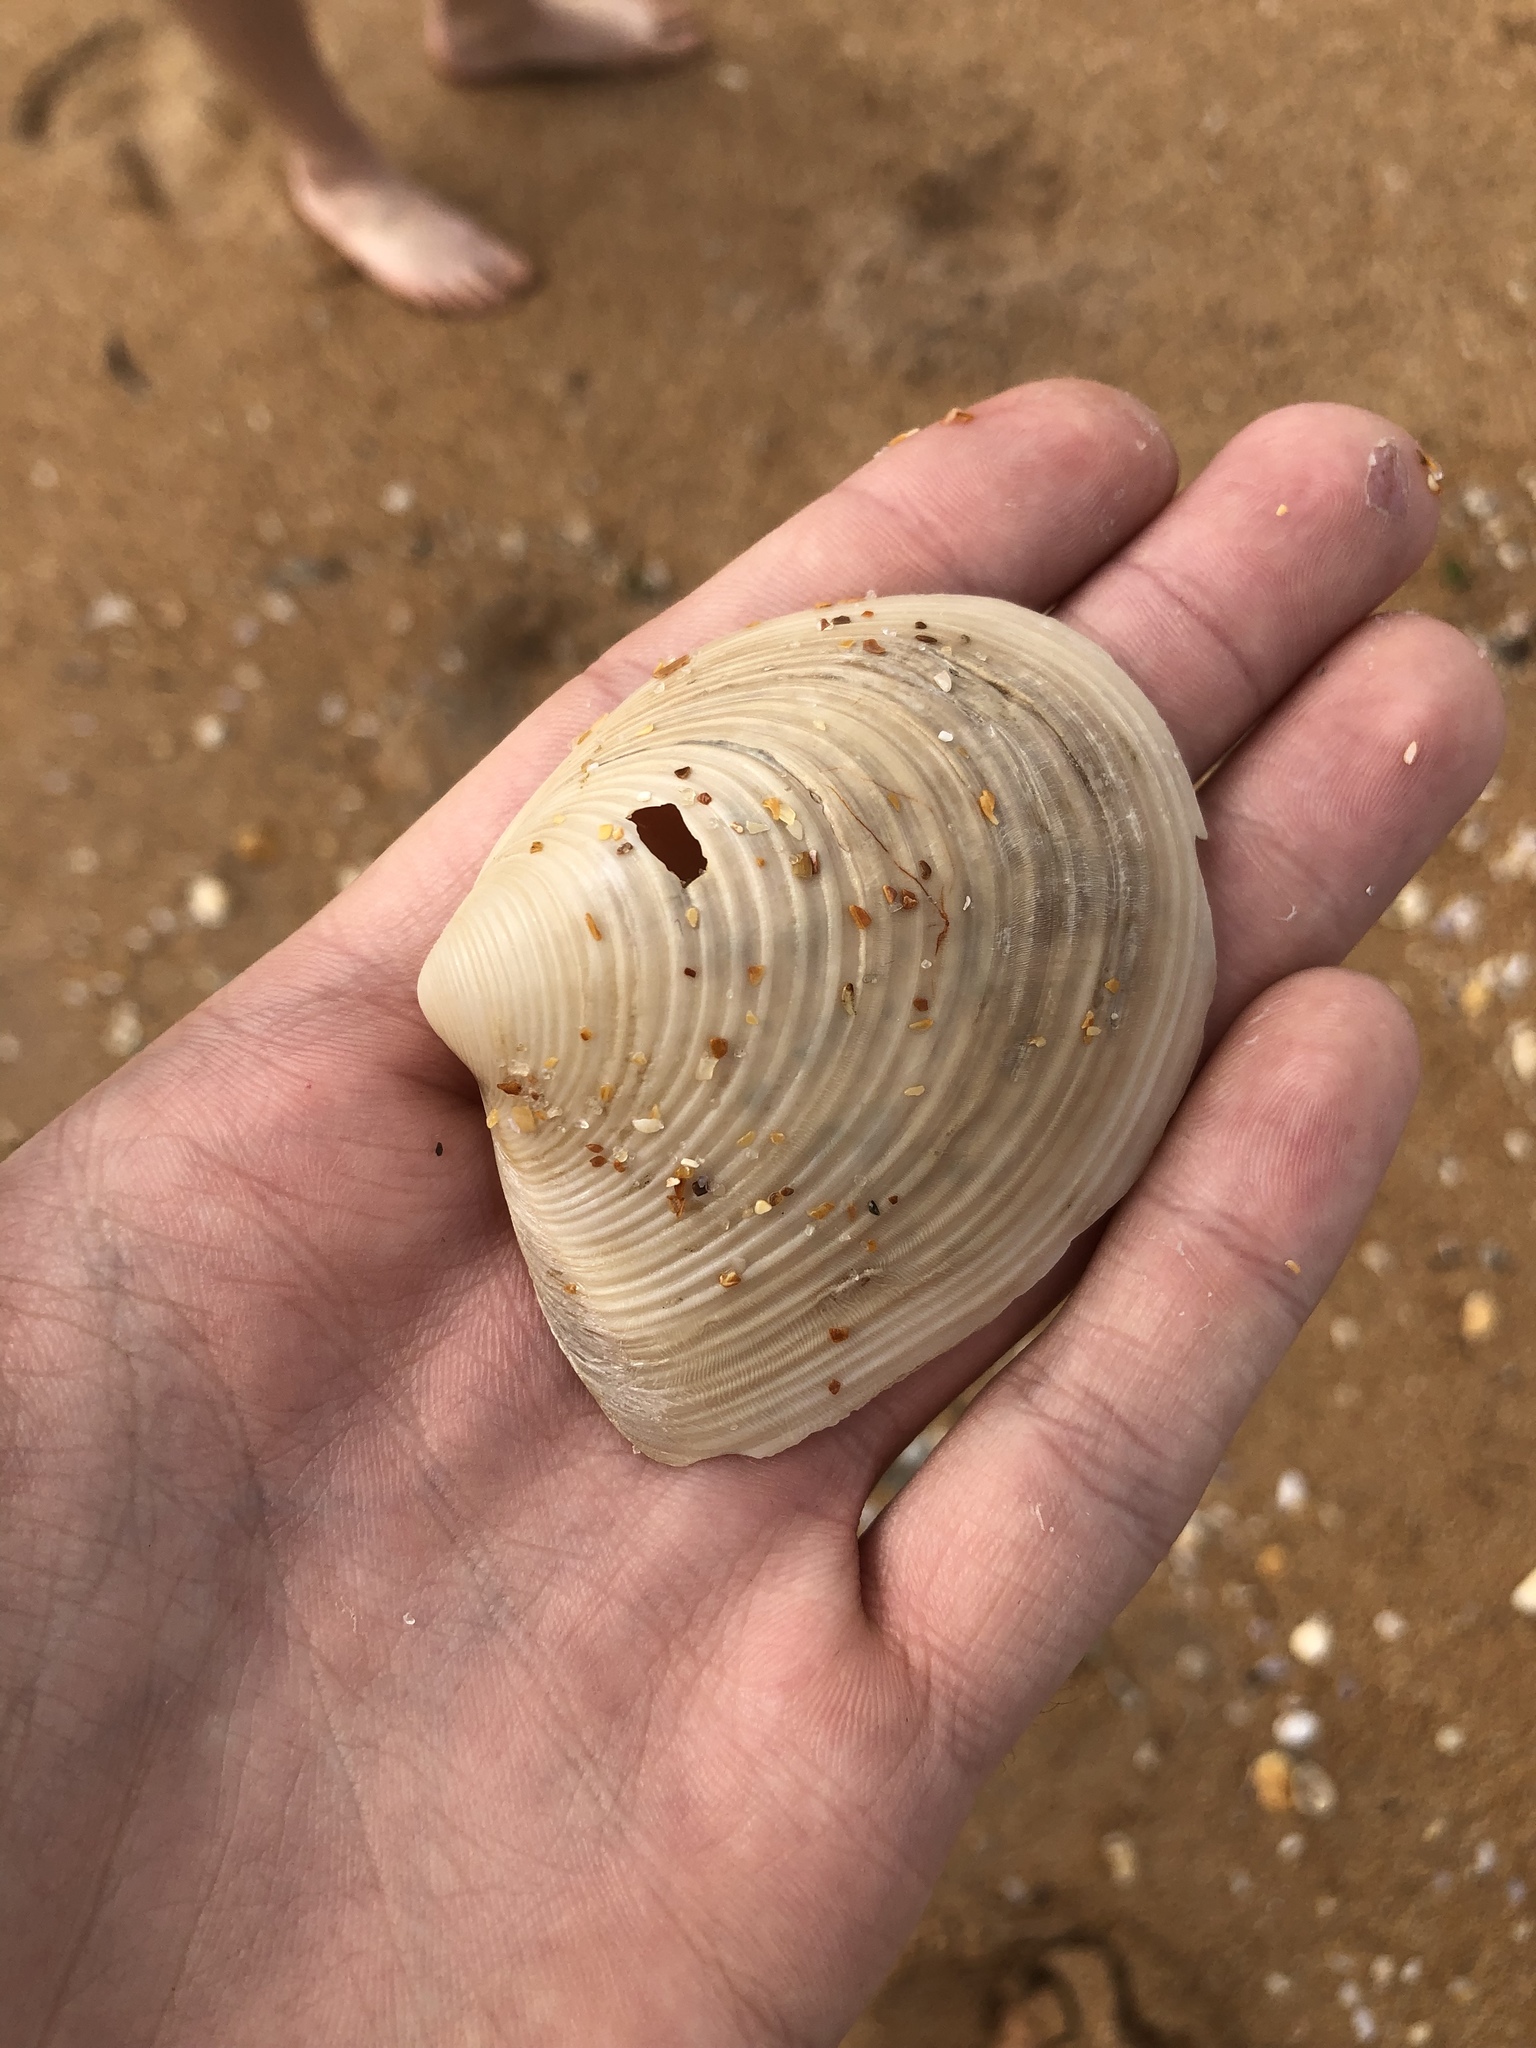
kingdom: Animalia
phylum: Mollusca
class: Bivalvia
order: Venerida
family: Anatinellidae
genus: Raeta
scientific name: Raeta plicatella
